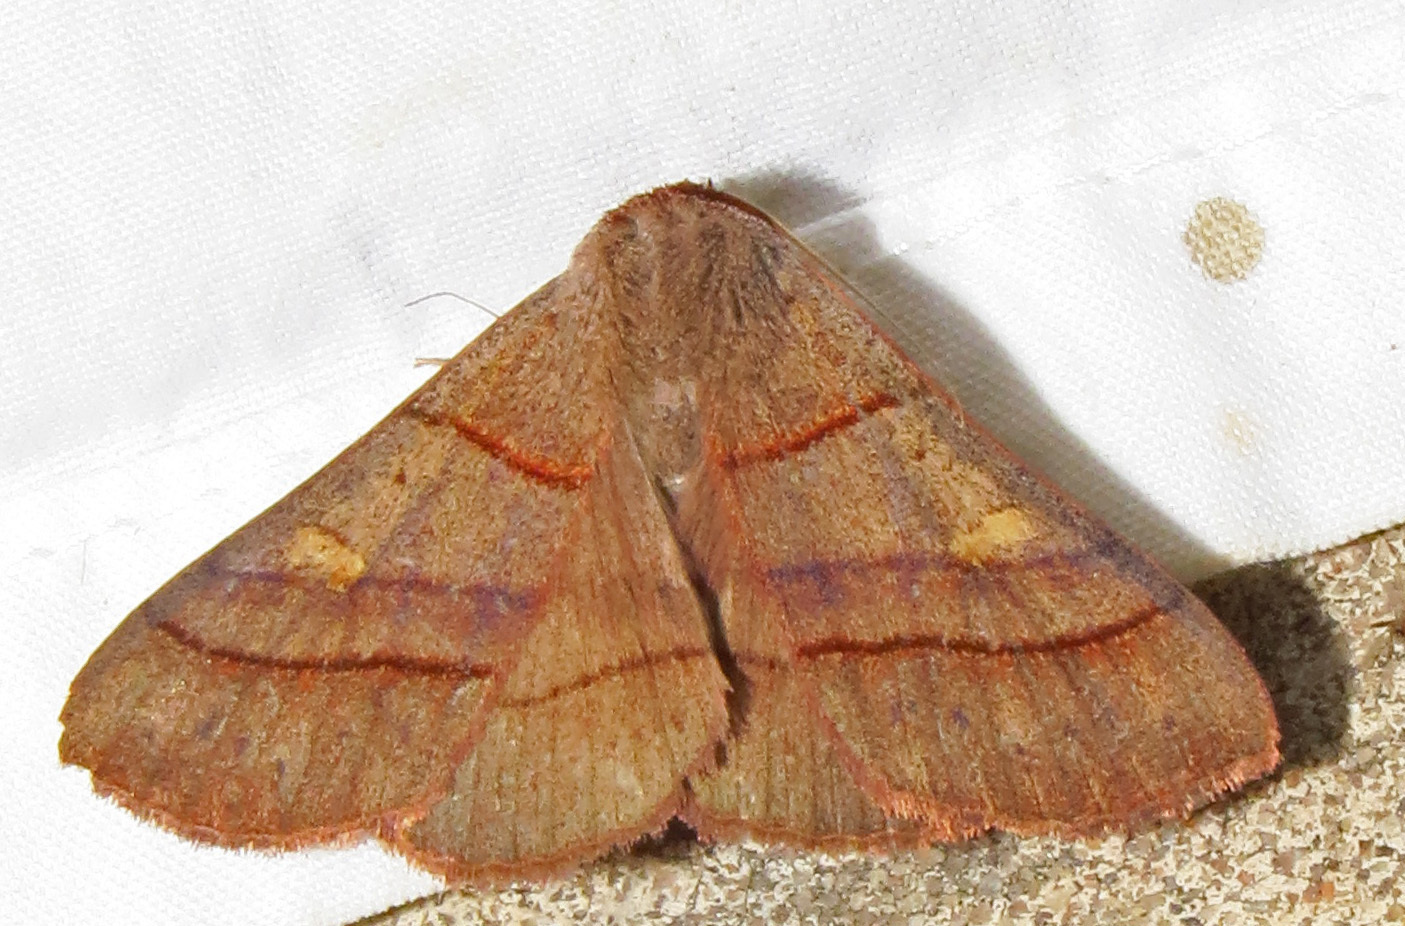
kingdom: Animalia
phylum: Arthropoda
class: Insecta
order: Lepidoptera
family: Erebidae
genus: Panopoda
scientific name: Panopoda rufimargo
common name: Red-lined panopoda moth
